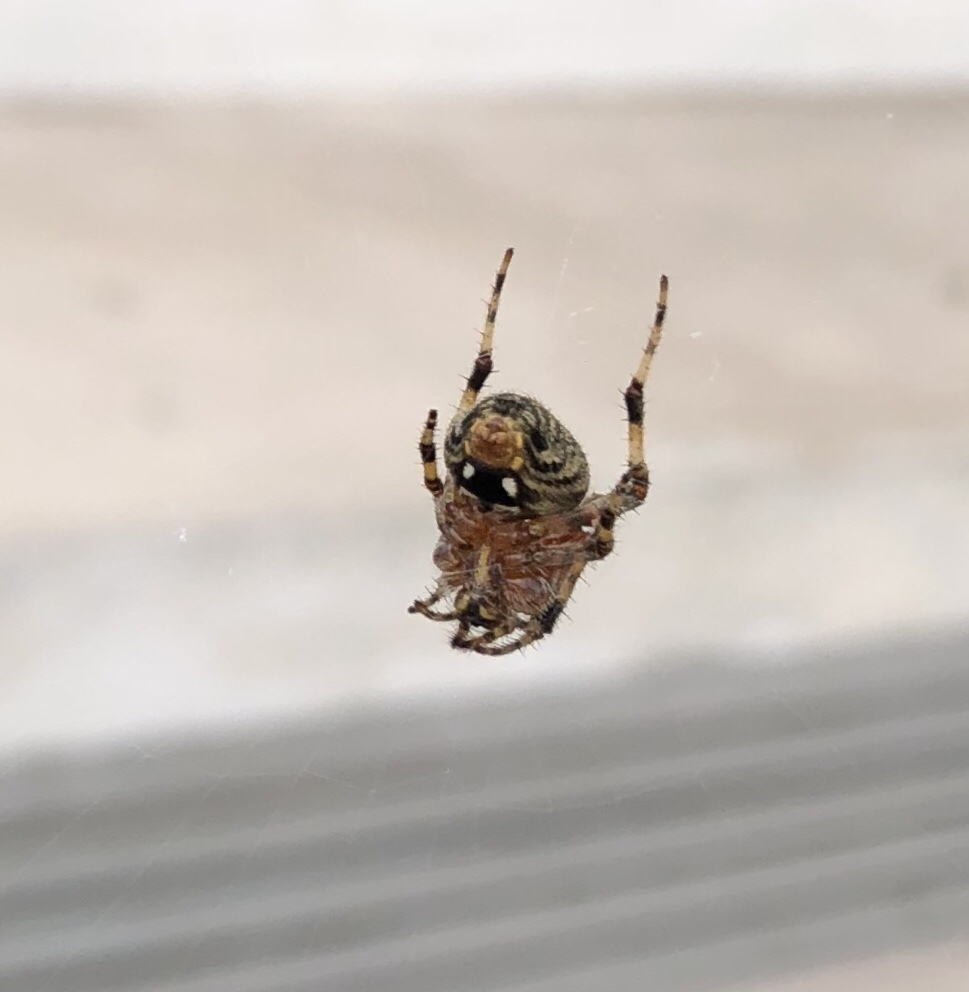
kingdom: Animalia
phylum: Arthropoda
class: Arachnida
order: Araneae
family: Araneidae
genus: Neoscona
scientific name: Neoscona crucifera
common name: Spotted orbweaver
